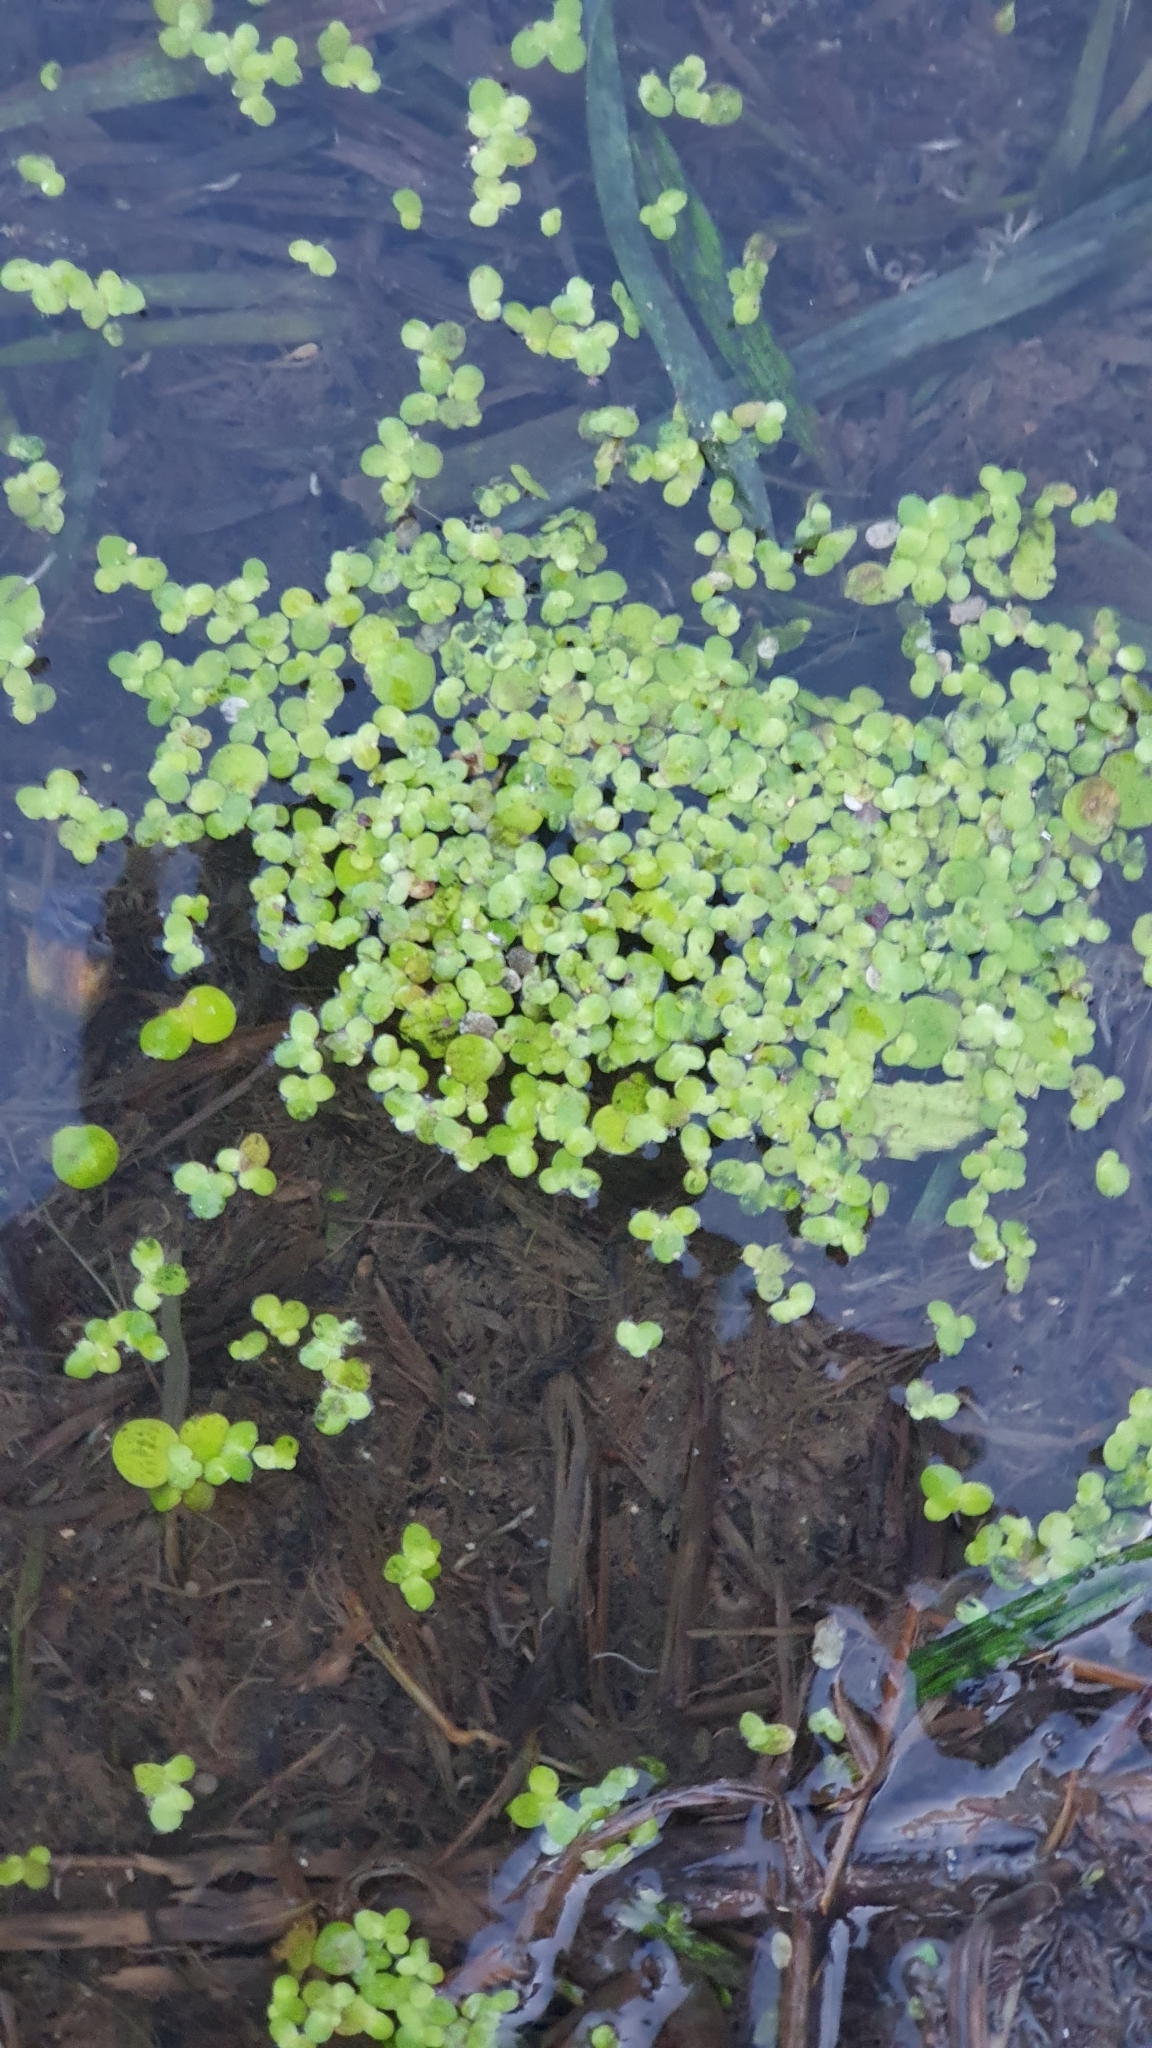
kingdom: Plantae
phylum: Tracheophyta
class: Liliopsida
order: Alismatales
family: Araceae
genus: Lemna
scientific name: Lemna minor
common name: Common duckweed
